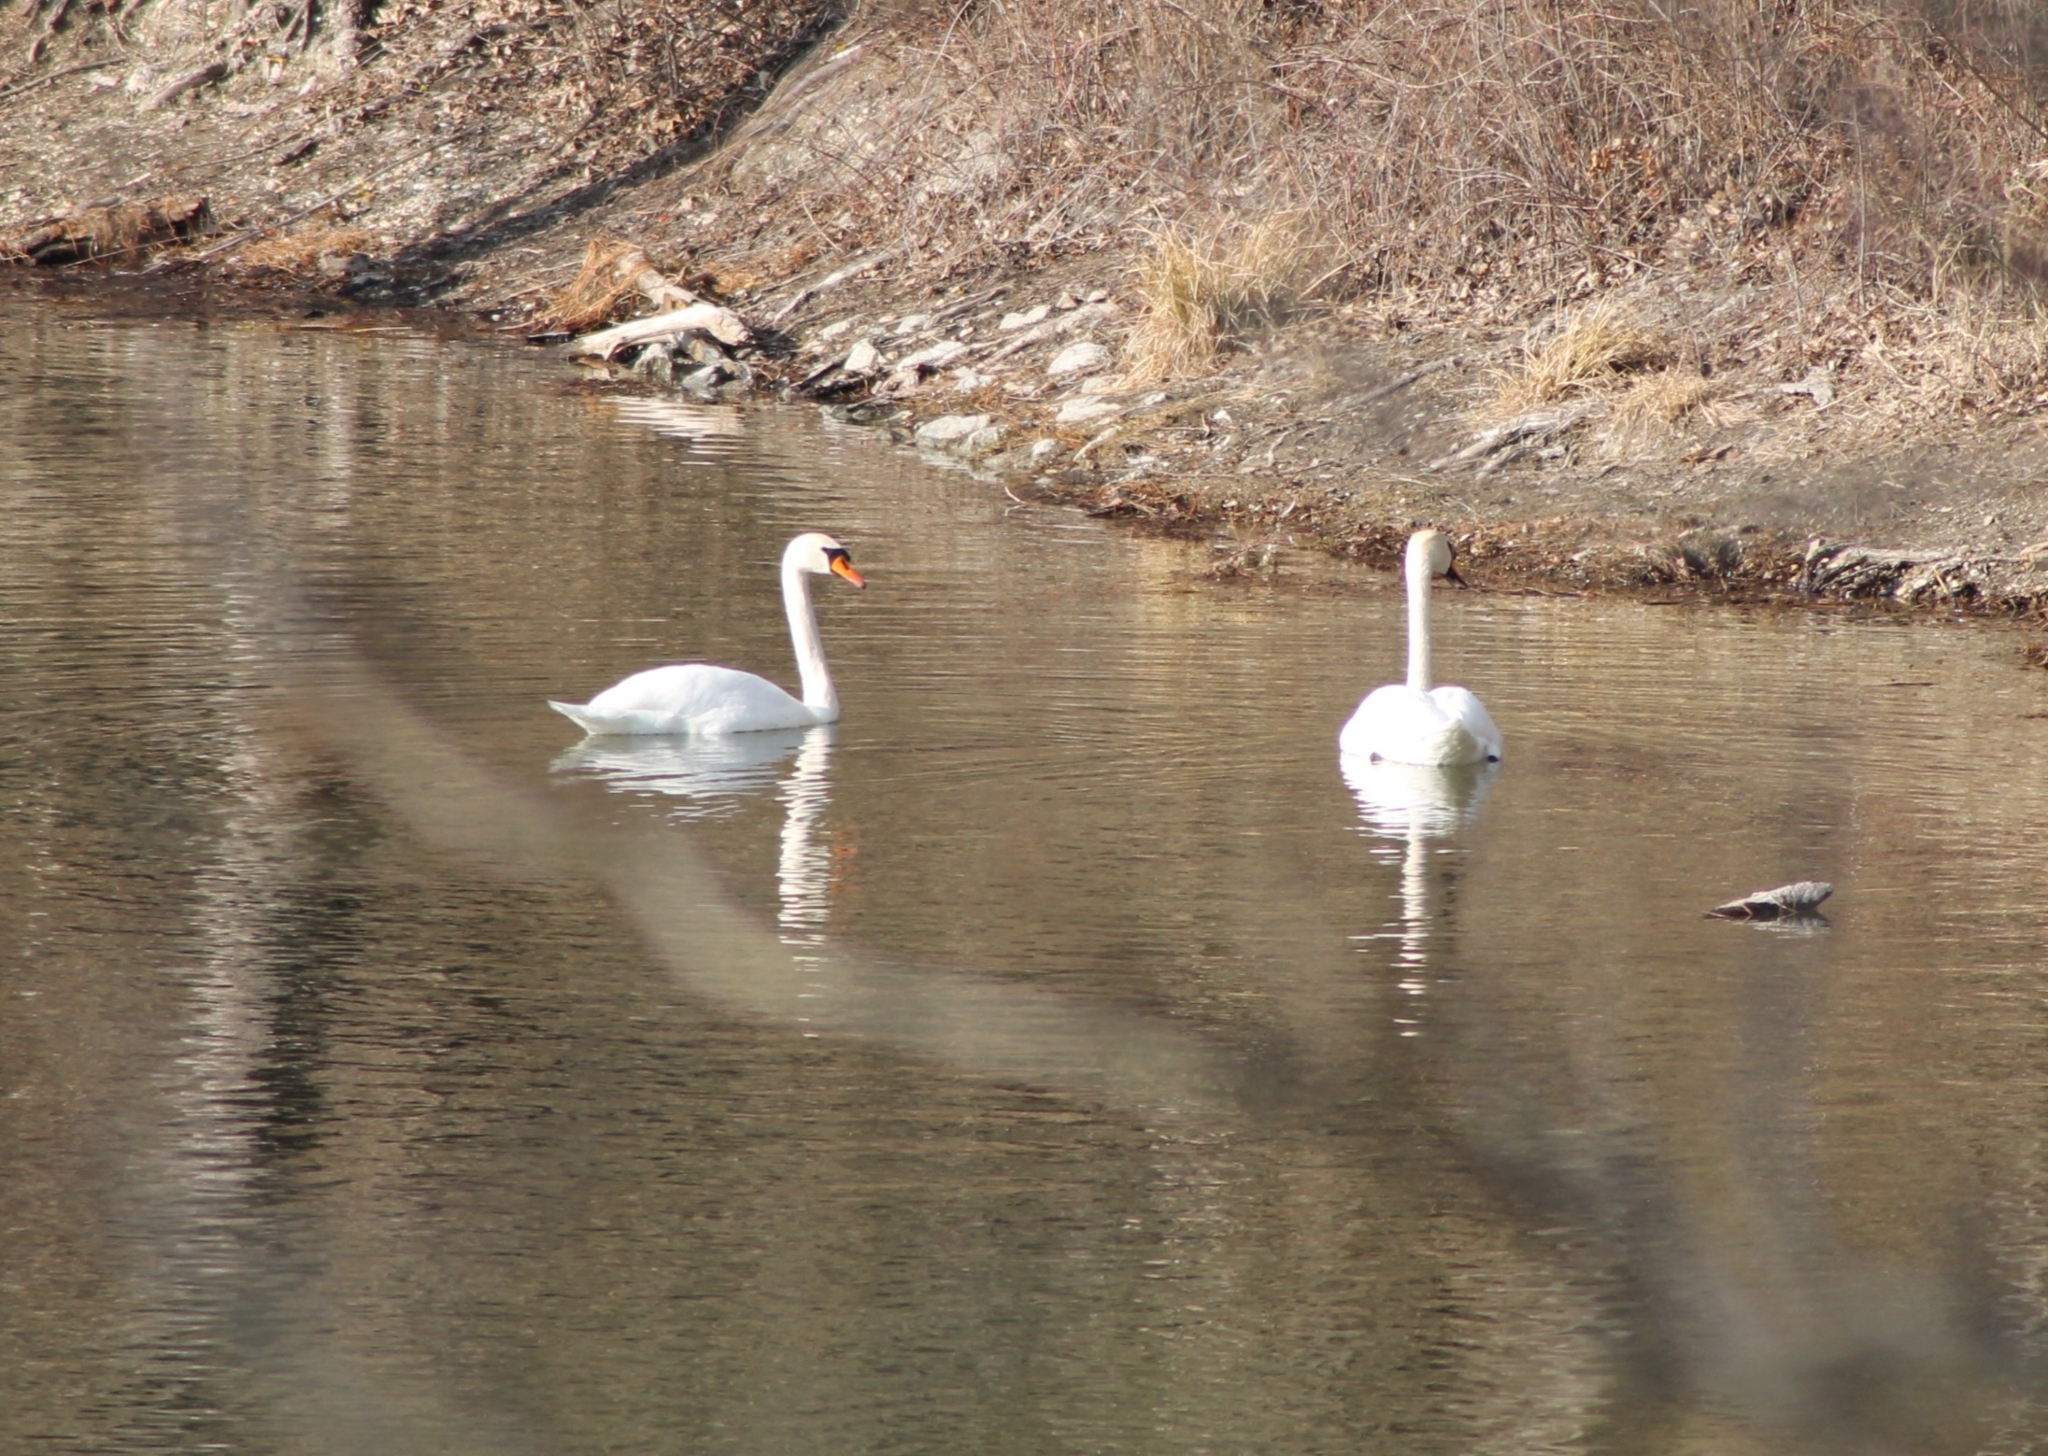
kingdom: Animalia
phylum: Chordata
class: Aves
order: Anseriformes
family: Anatidae
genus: Cygnus
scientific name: Cygnus olor
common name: Mute swan
